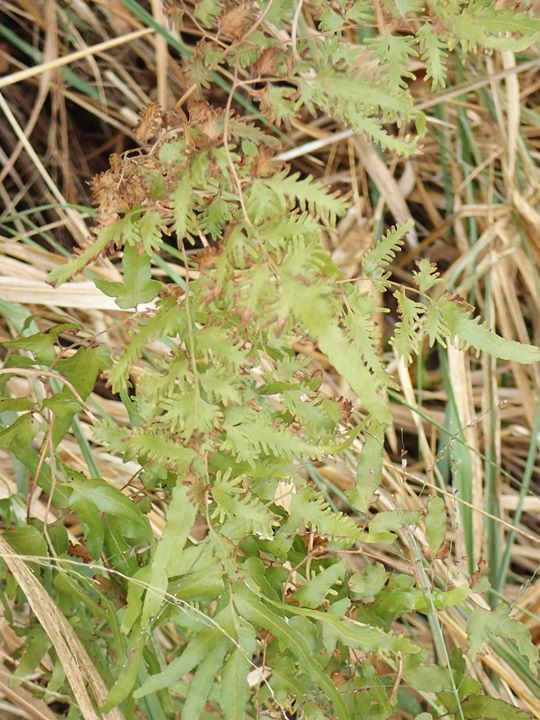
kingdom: Plantae
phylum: Tracheophyta
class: Polypodiopsida
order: Schizaeales
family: Lygodiaceae
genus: Lygodium
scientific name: Lygodium japonicum
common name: Japanese climbing fern
